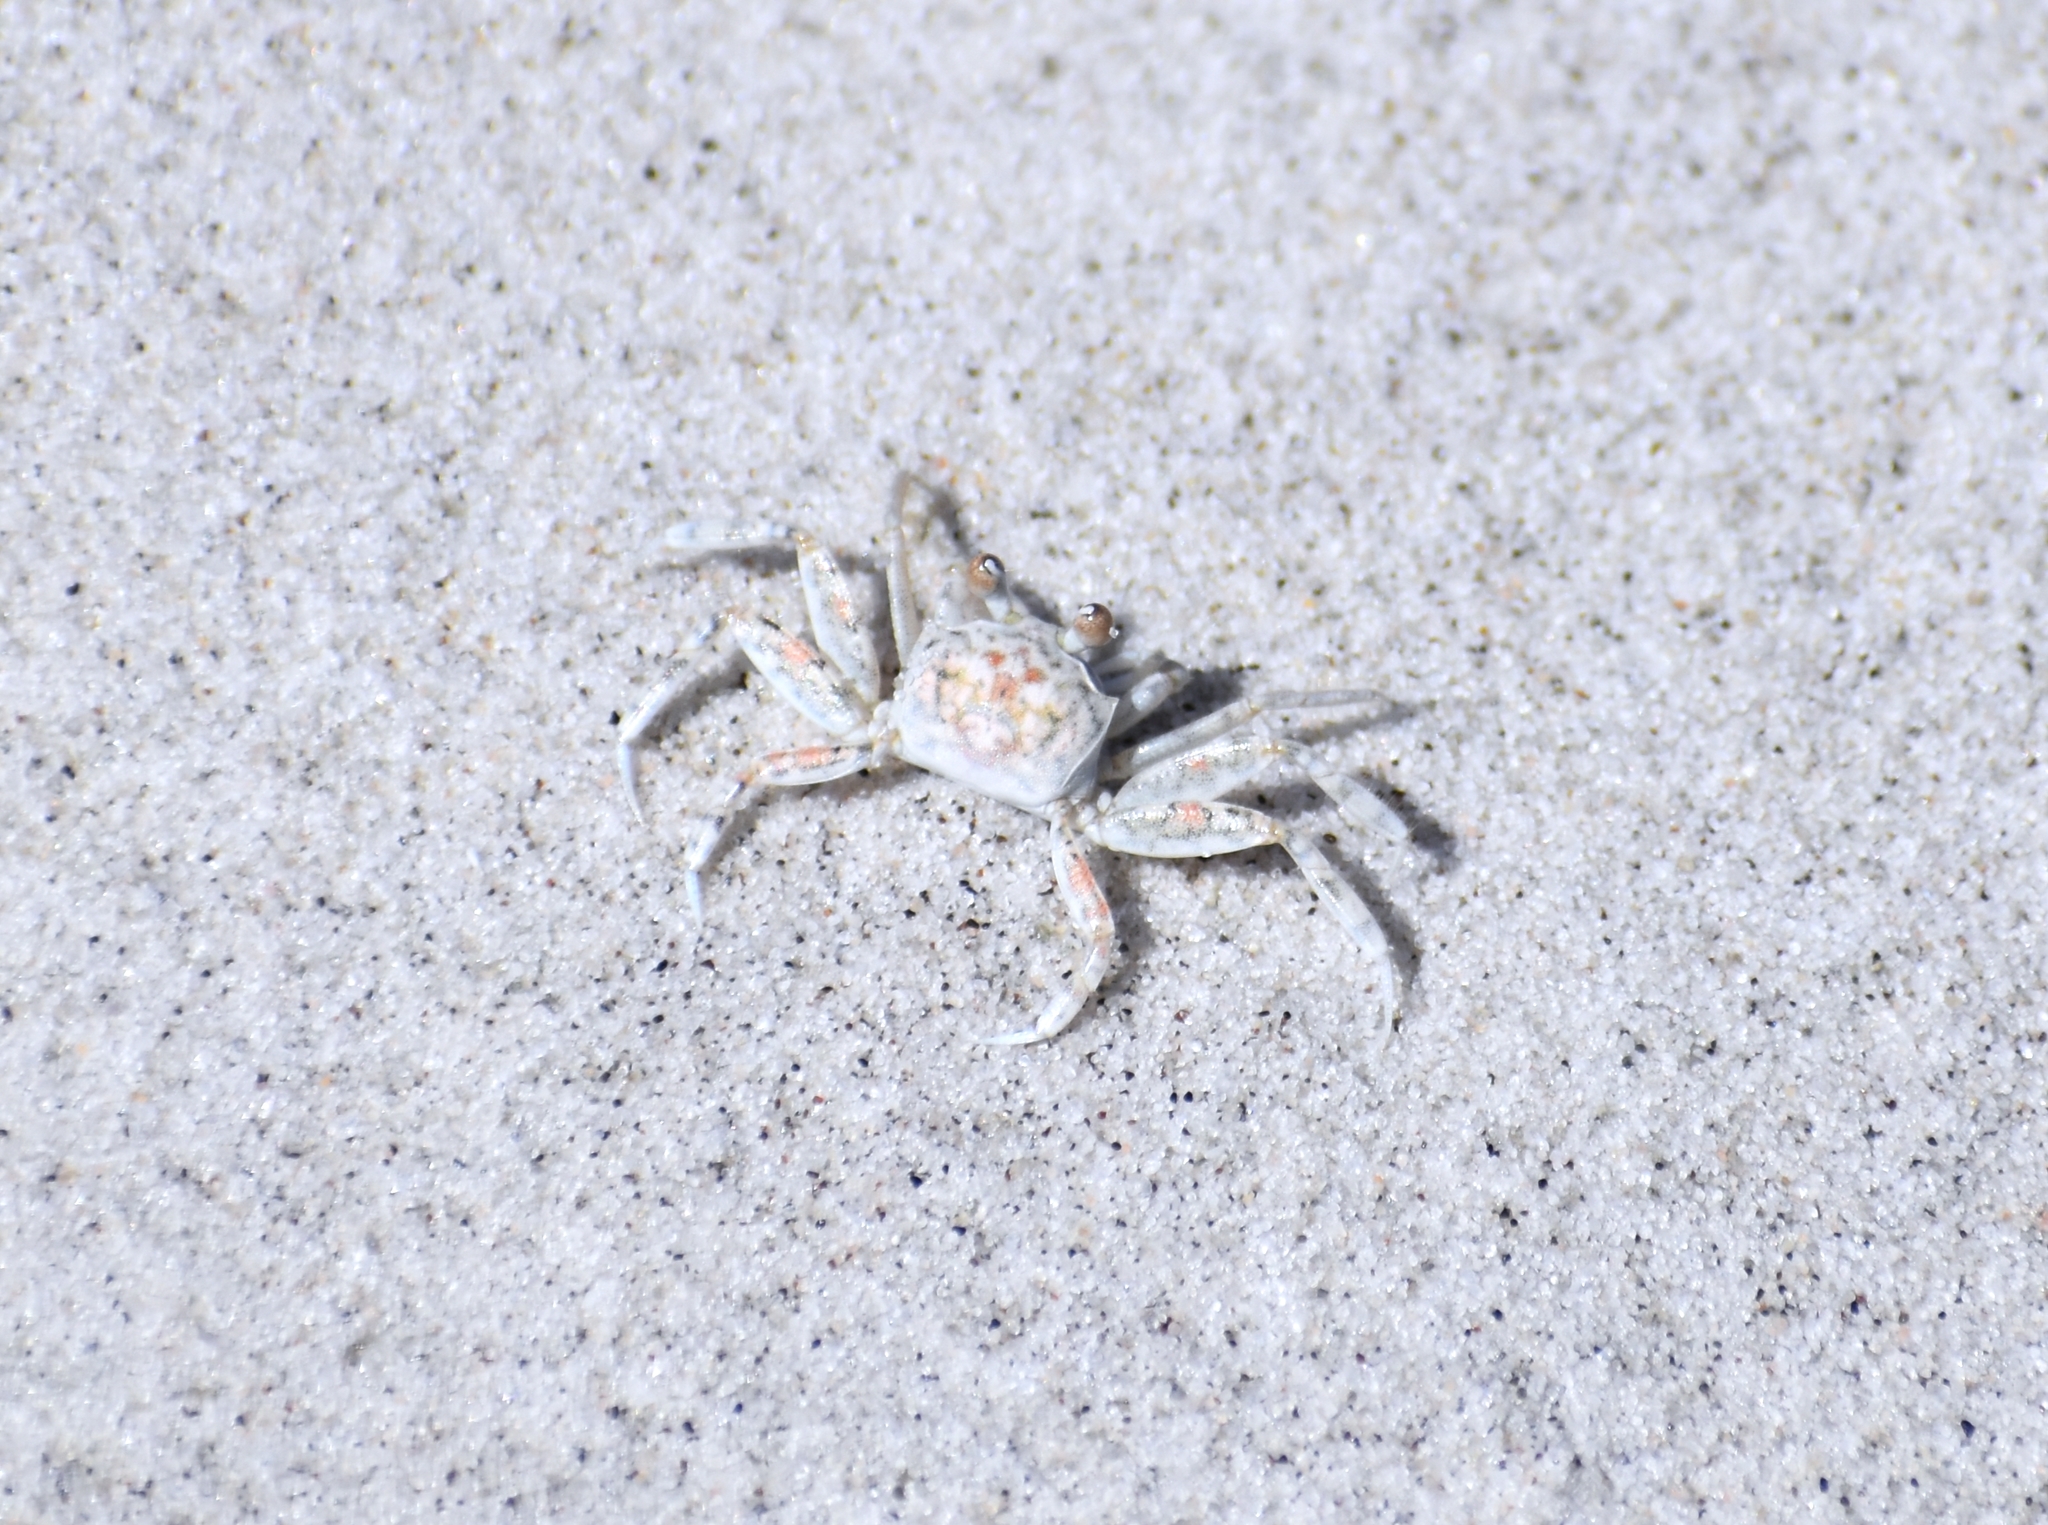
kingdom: Animalia
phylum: Arthropoda
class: Malacostraca
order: Decapoda
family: Ocypodidae
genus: Ocypode
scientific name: Ocypode quadrata
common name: Ghost crab
